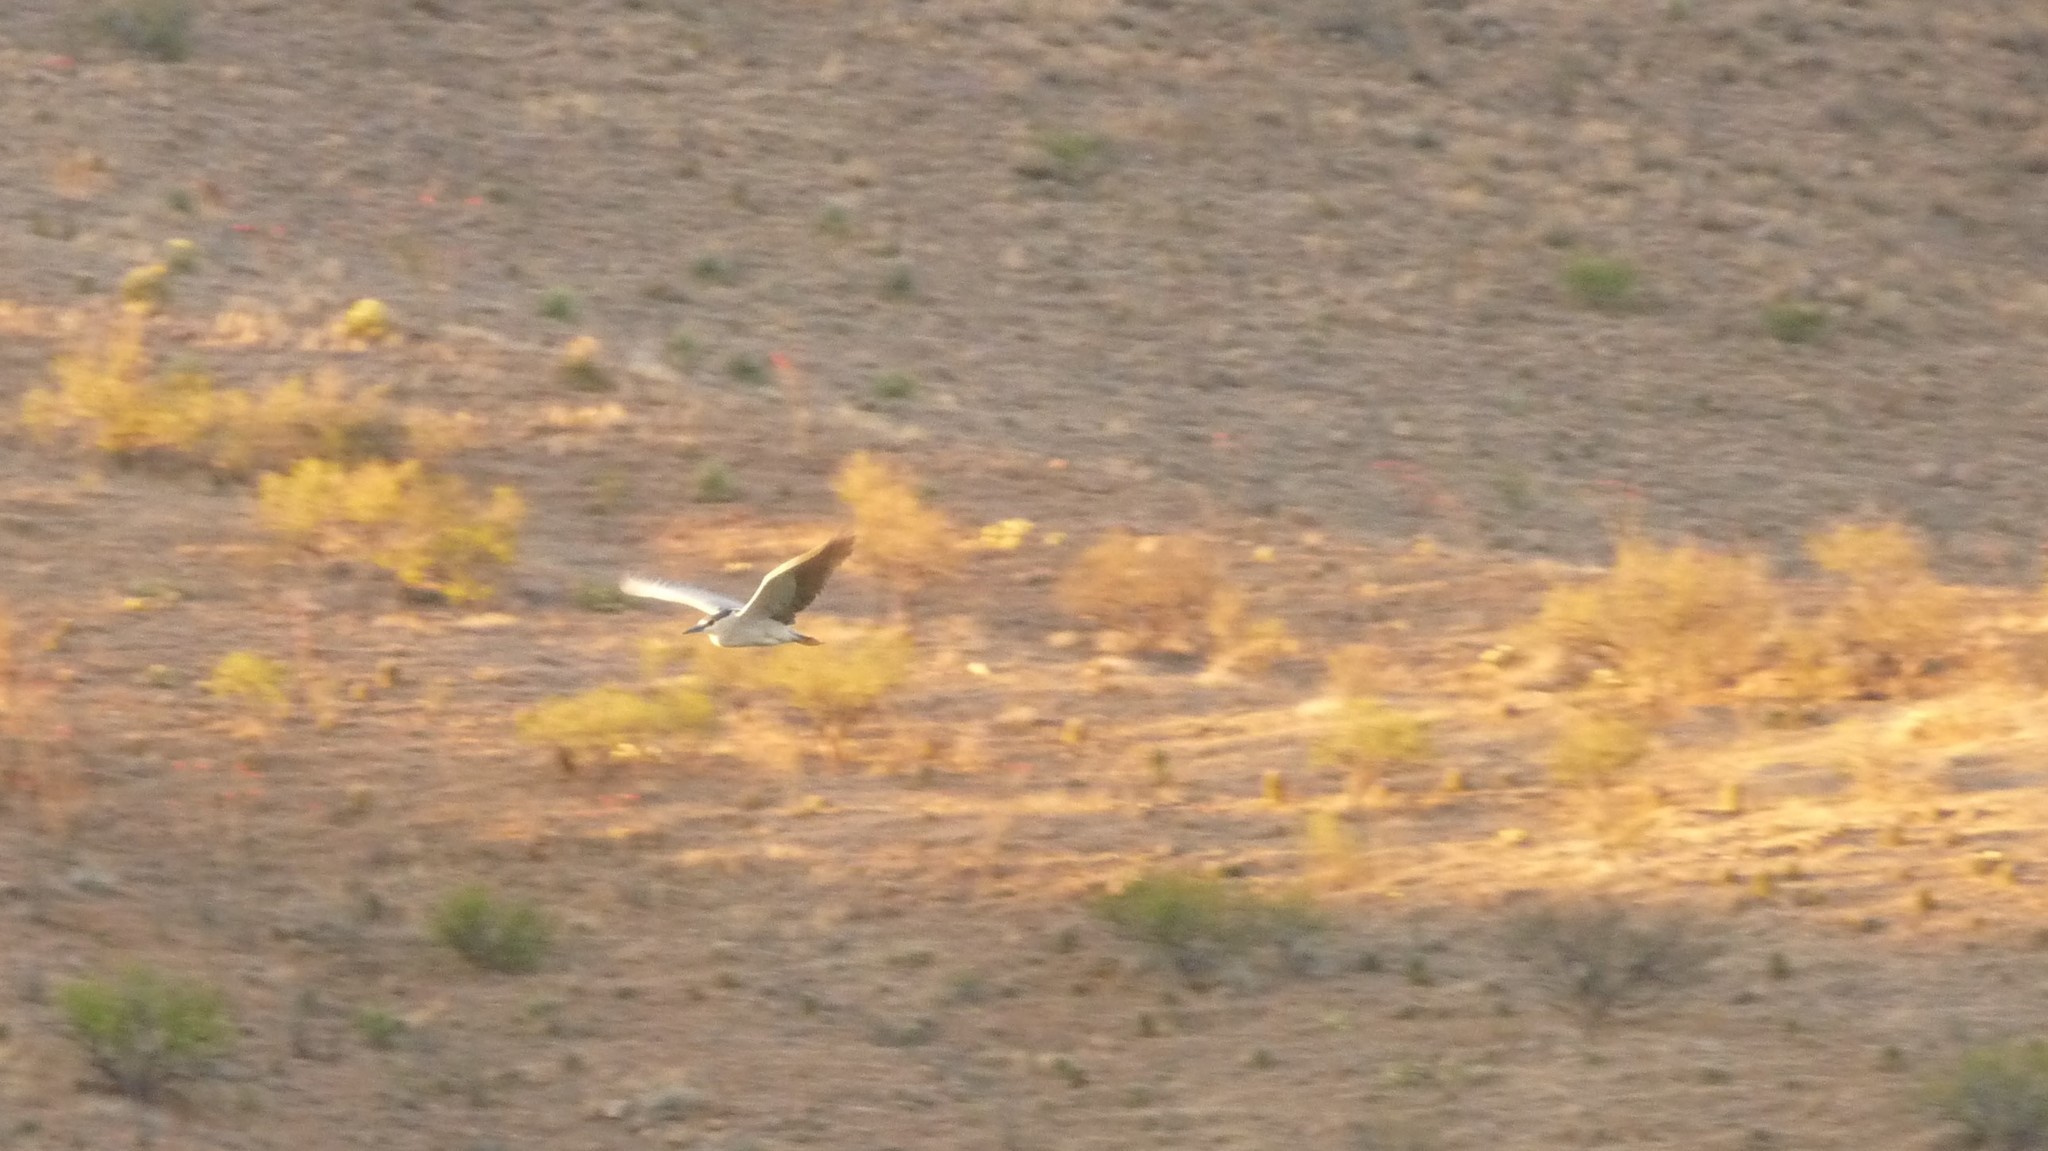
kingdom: Animalia
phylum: Chordata
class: Aves
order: Pelecaniformes
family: Ardeidae
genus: Nycticorax
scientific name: Nycticorax nycticorax
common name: Black-crowned night heron
